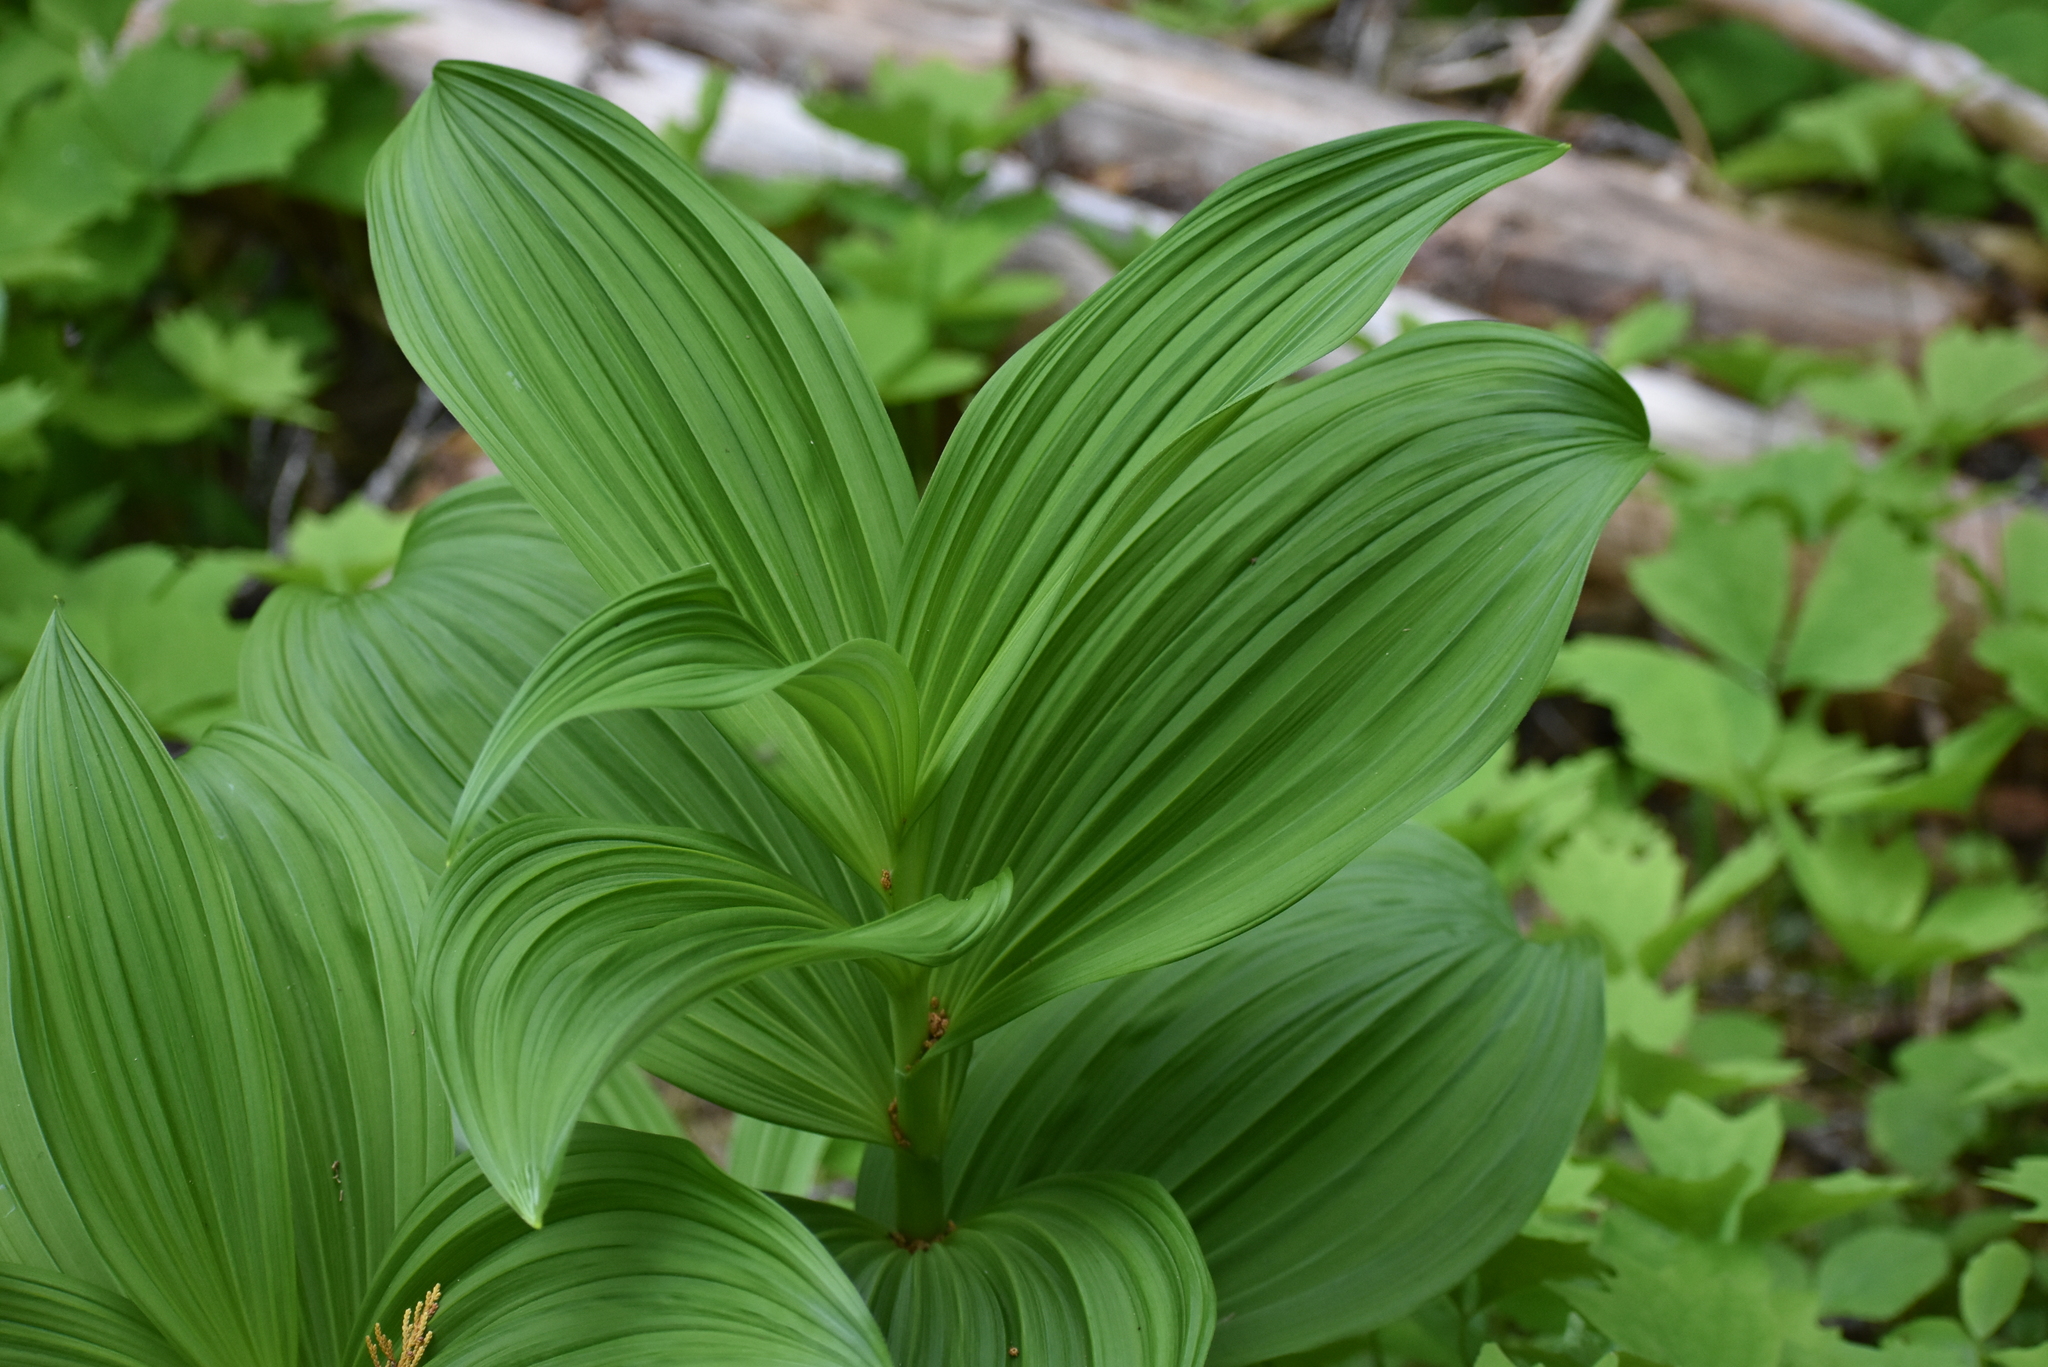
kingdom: Plantae
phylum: Tracheophyta
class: Liliopsida
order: Liliales
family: Melanthiaceae
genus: Veratrum
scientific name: Veratrum viride
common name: American false hellebore
